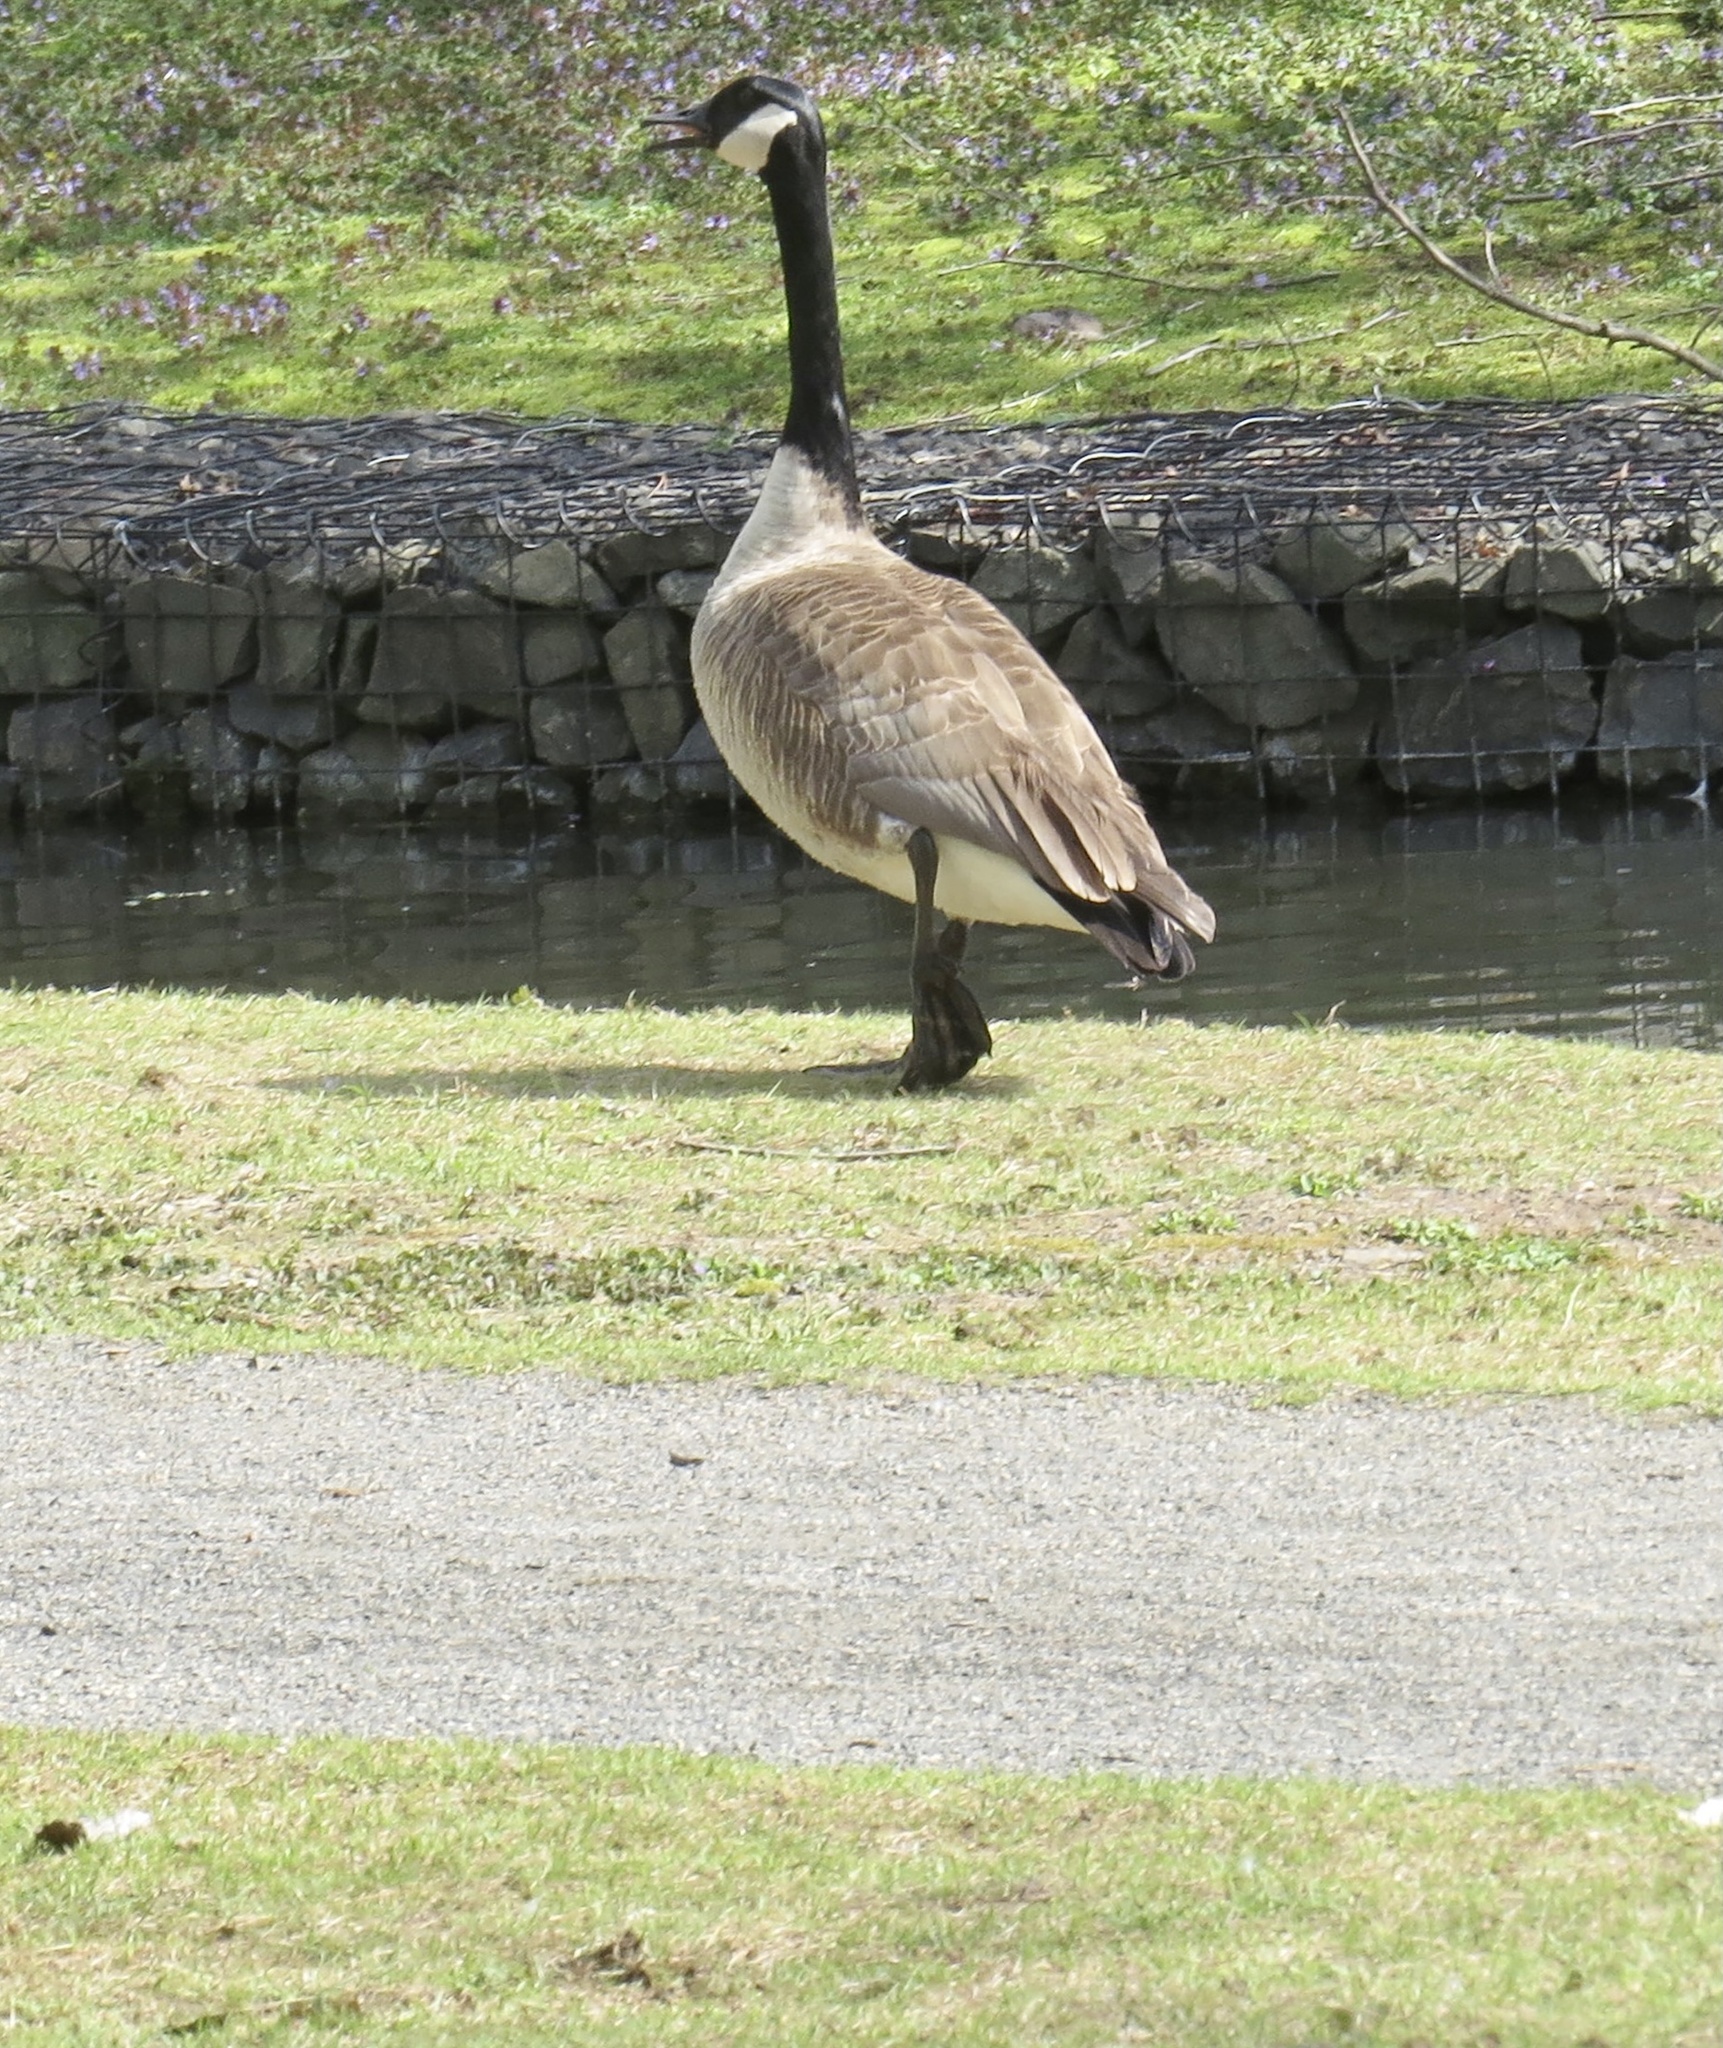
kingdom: Animalia
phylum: Chordata
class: Aves
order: Anseriformes
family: Anatidae
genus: Branta
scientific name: Branta canadensis
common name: Canada goose
